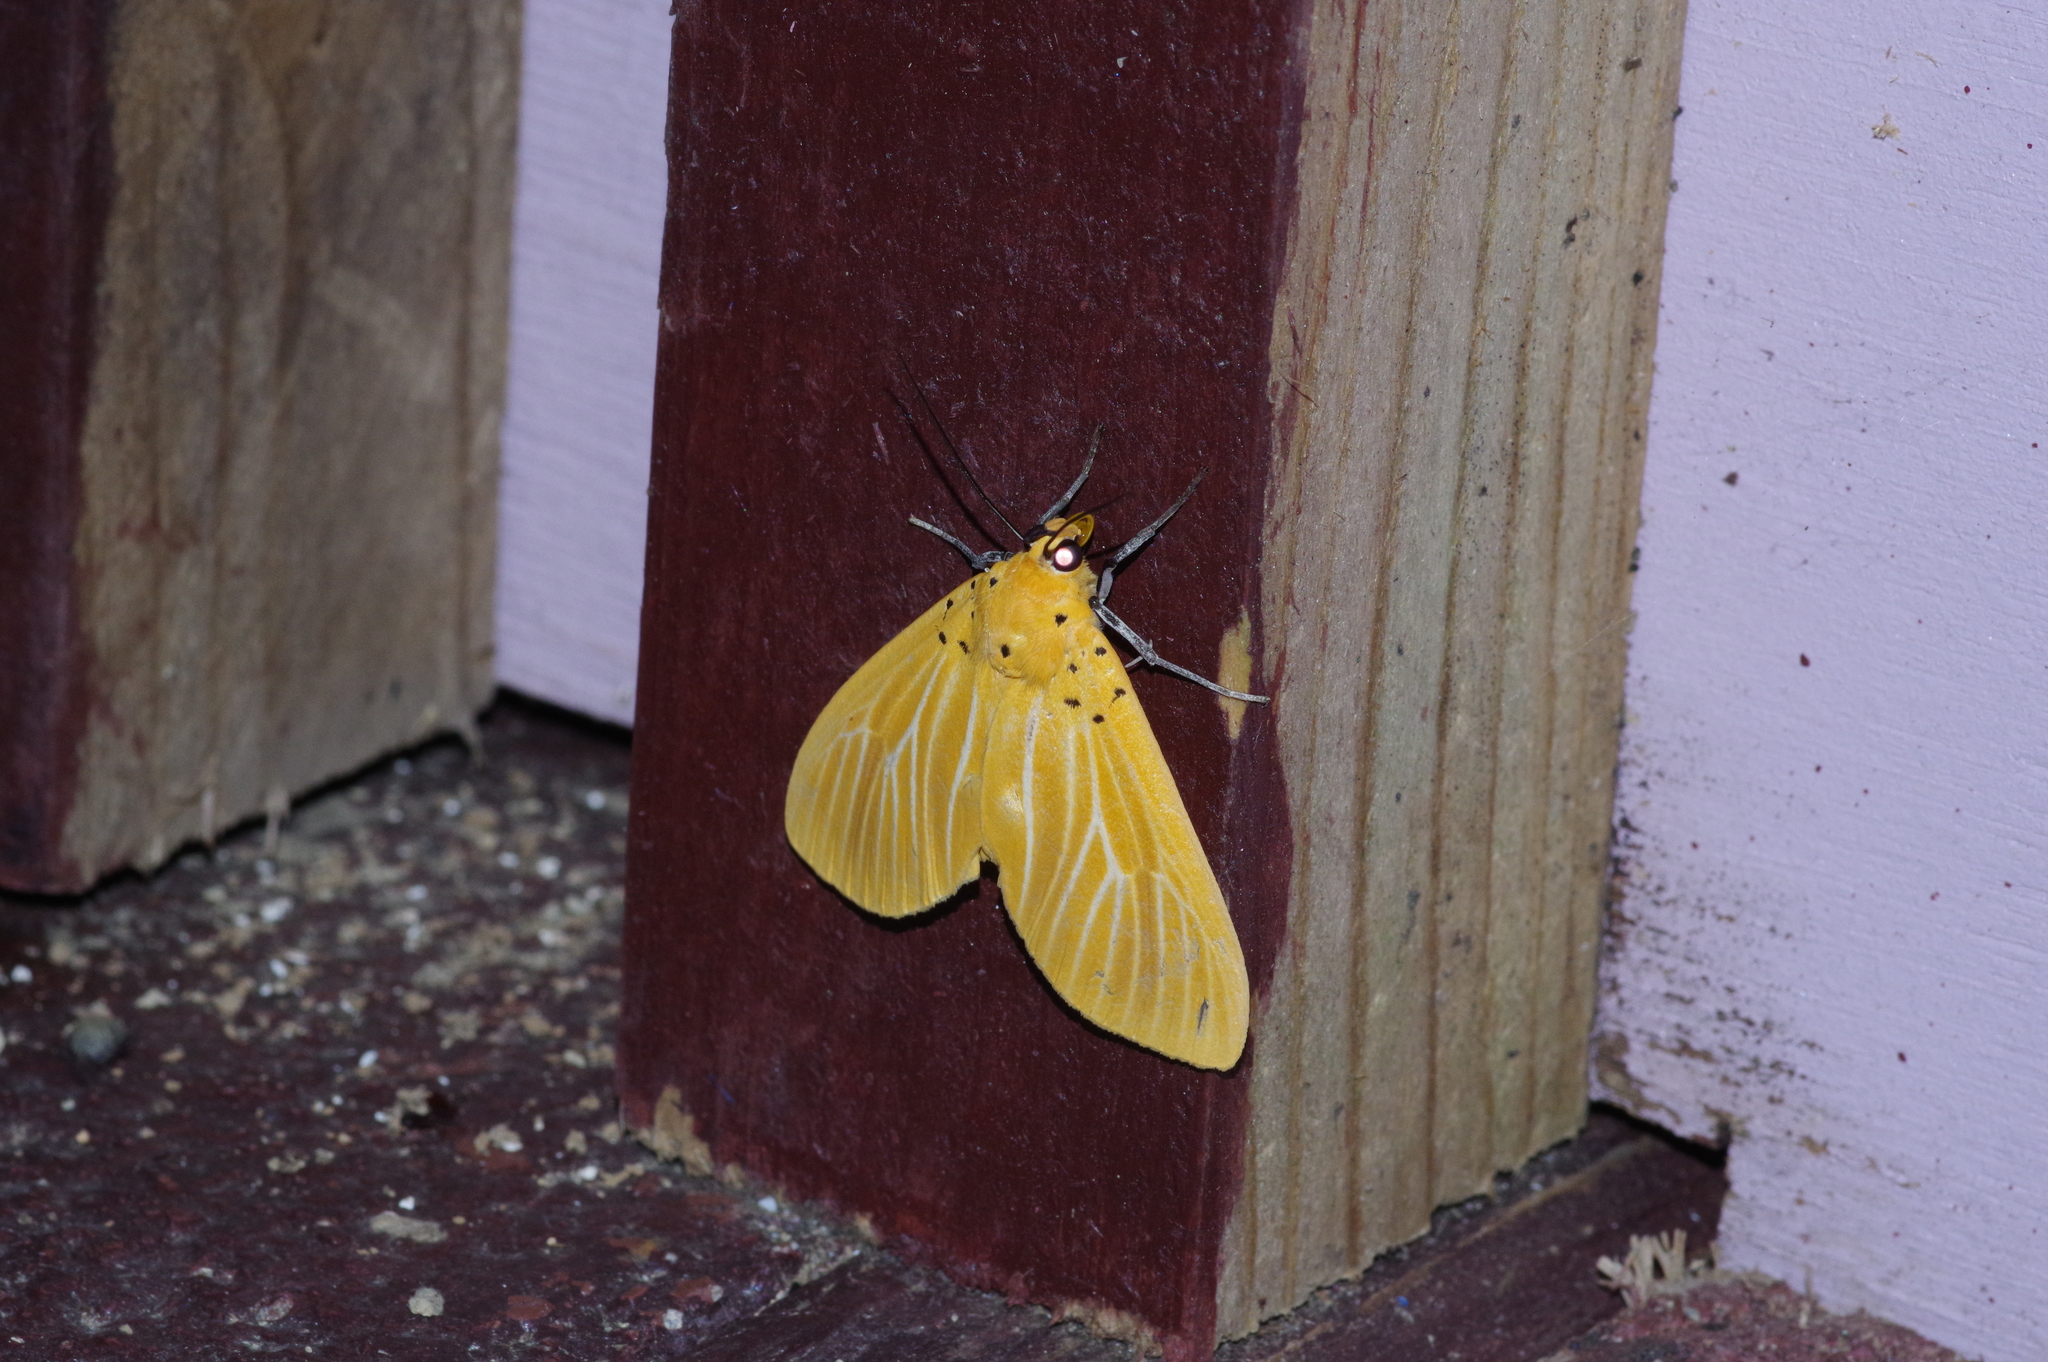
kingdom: Animalia
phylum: Arthropoda
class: Insecta
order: Lepidoptera
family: Erebidae
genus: Asota
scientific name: Asota egens
